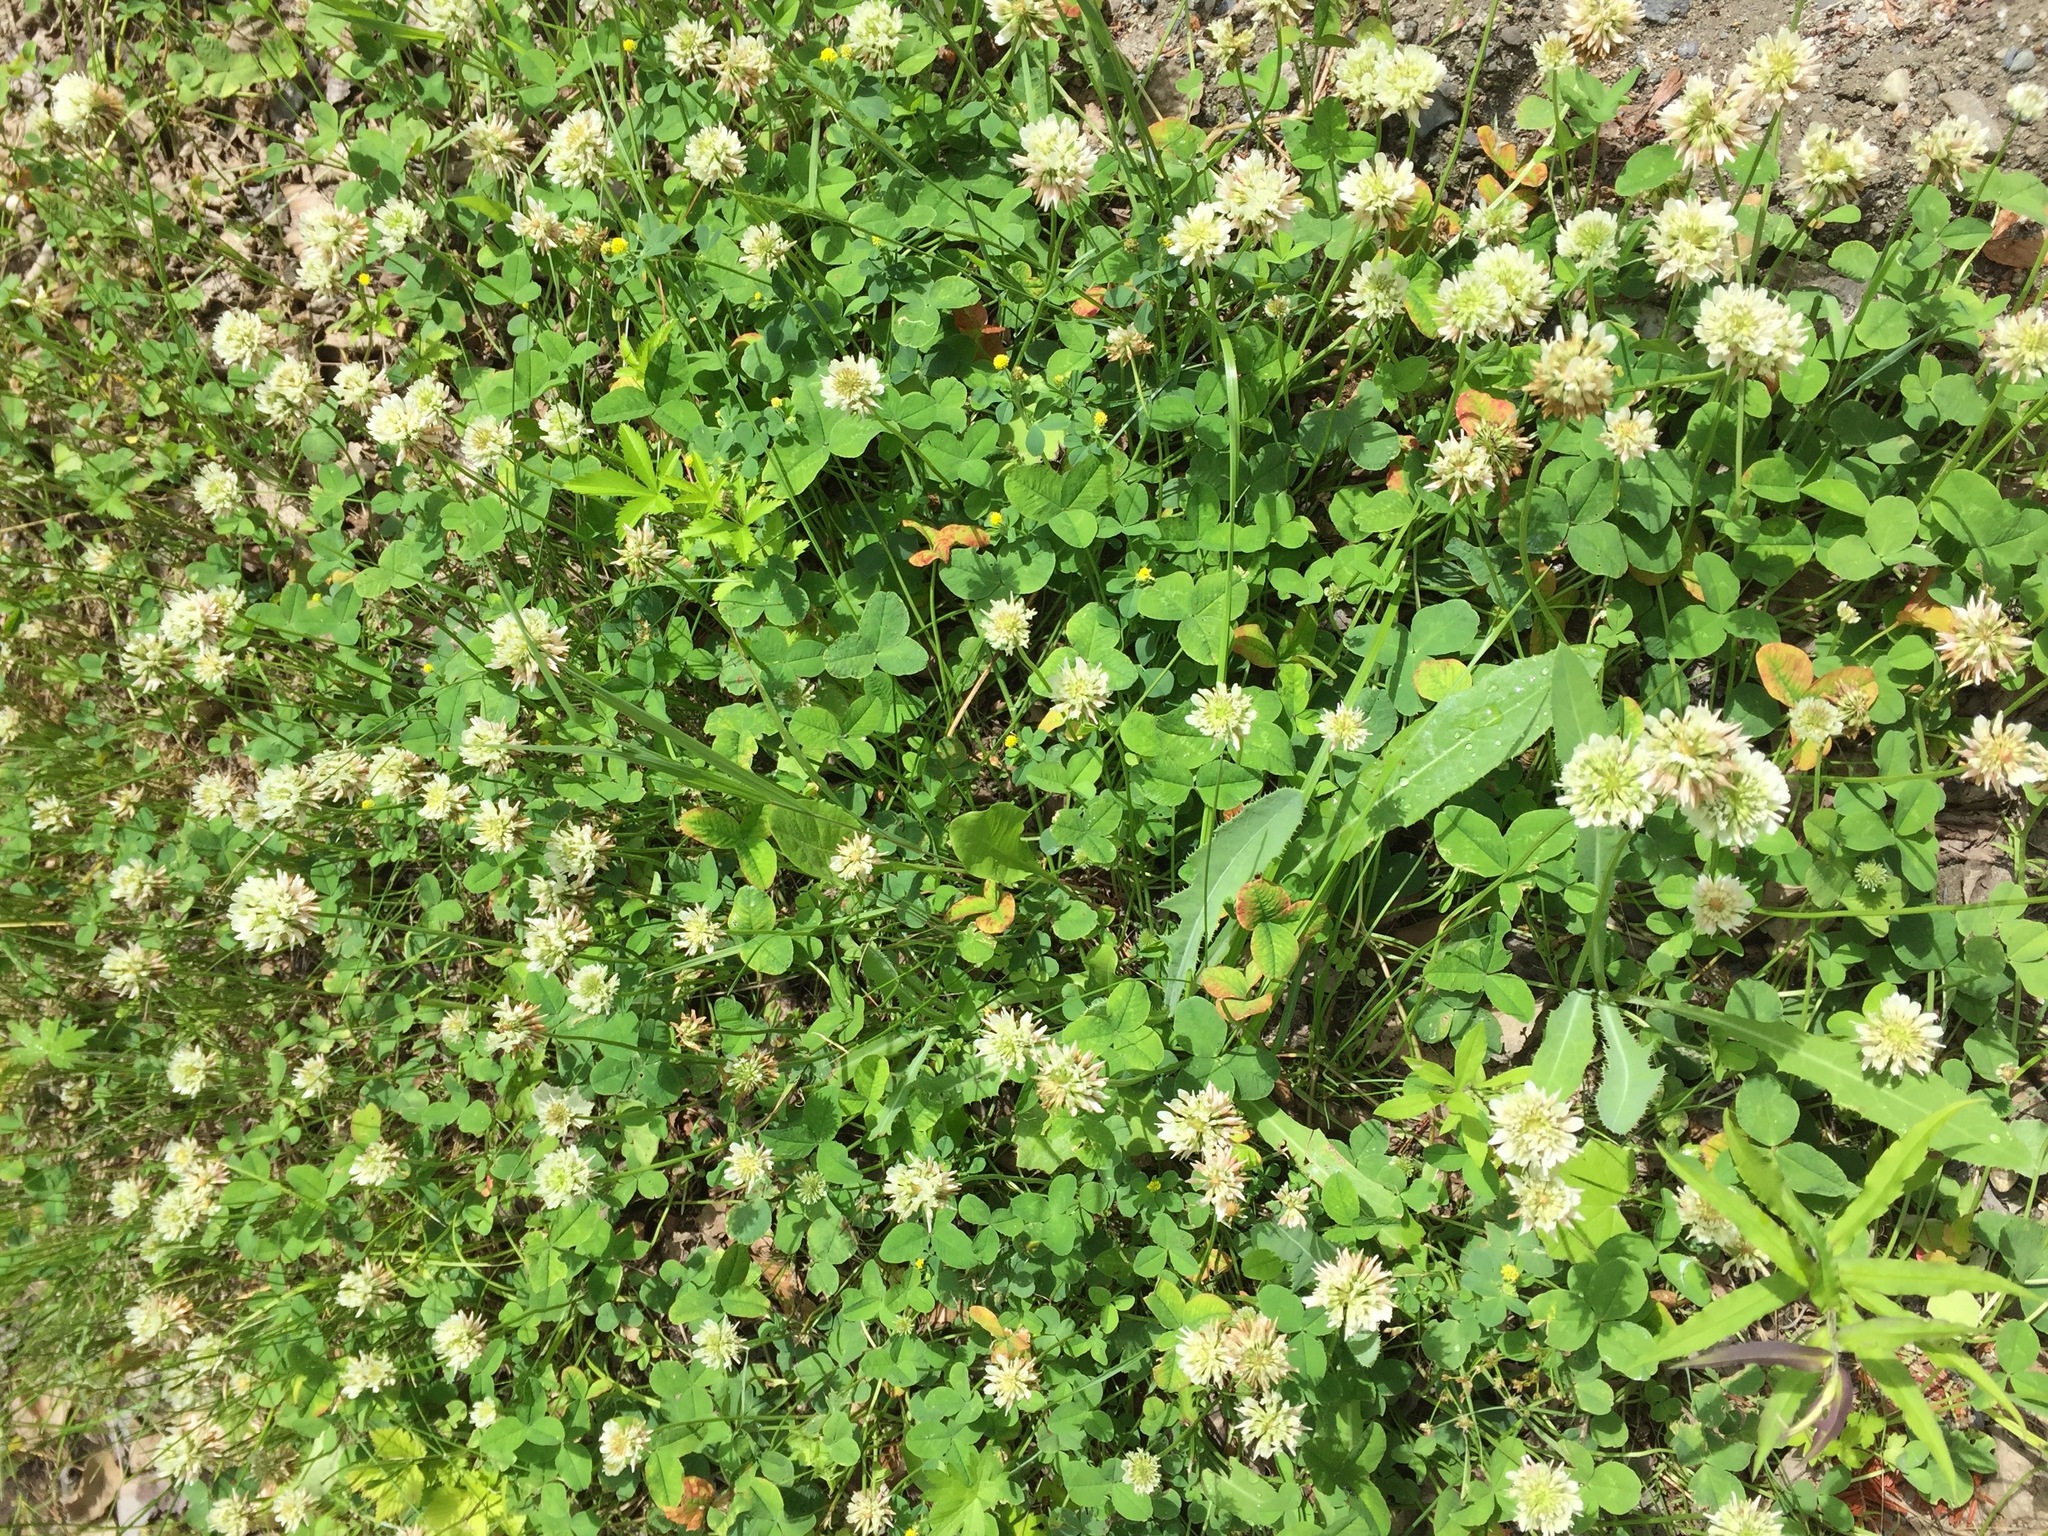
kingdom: Plantae
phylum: Tracheophyta
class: Magnoliopsida
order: Fabales
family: Fabaceae
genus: Trifolium
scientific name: Trifolium repens
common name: White clover
